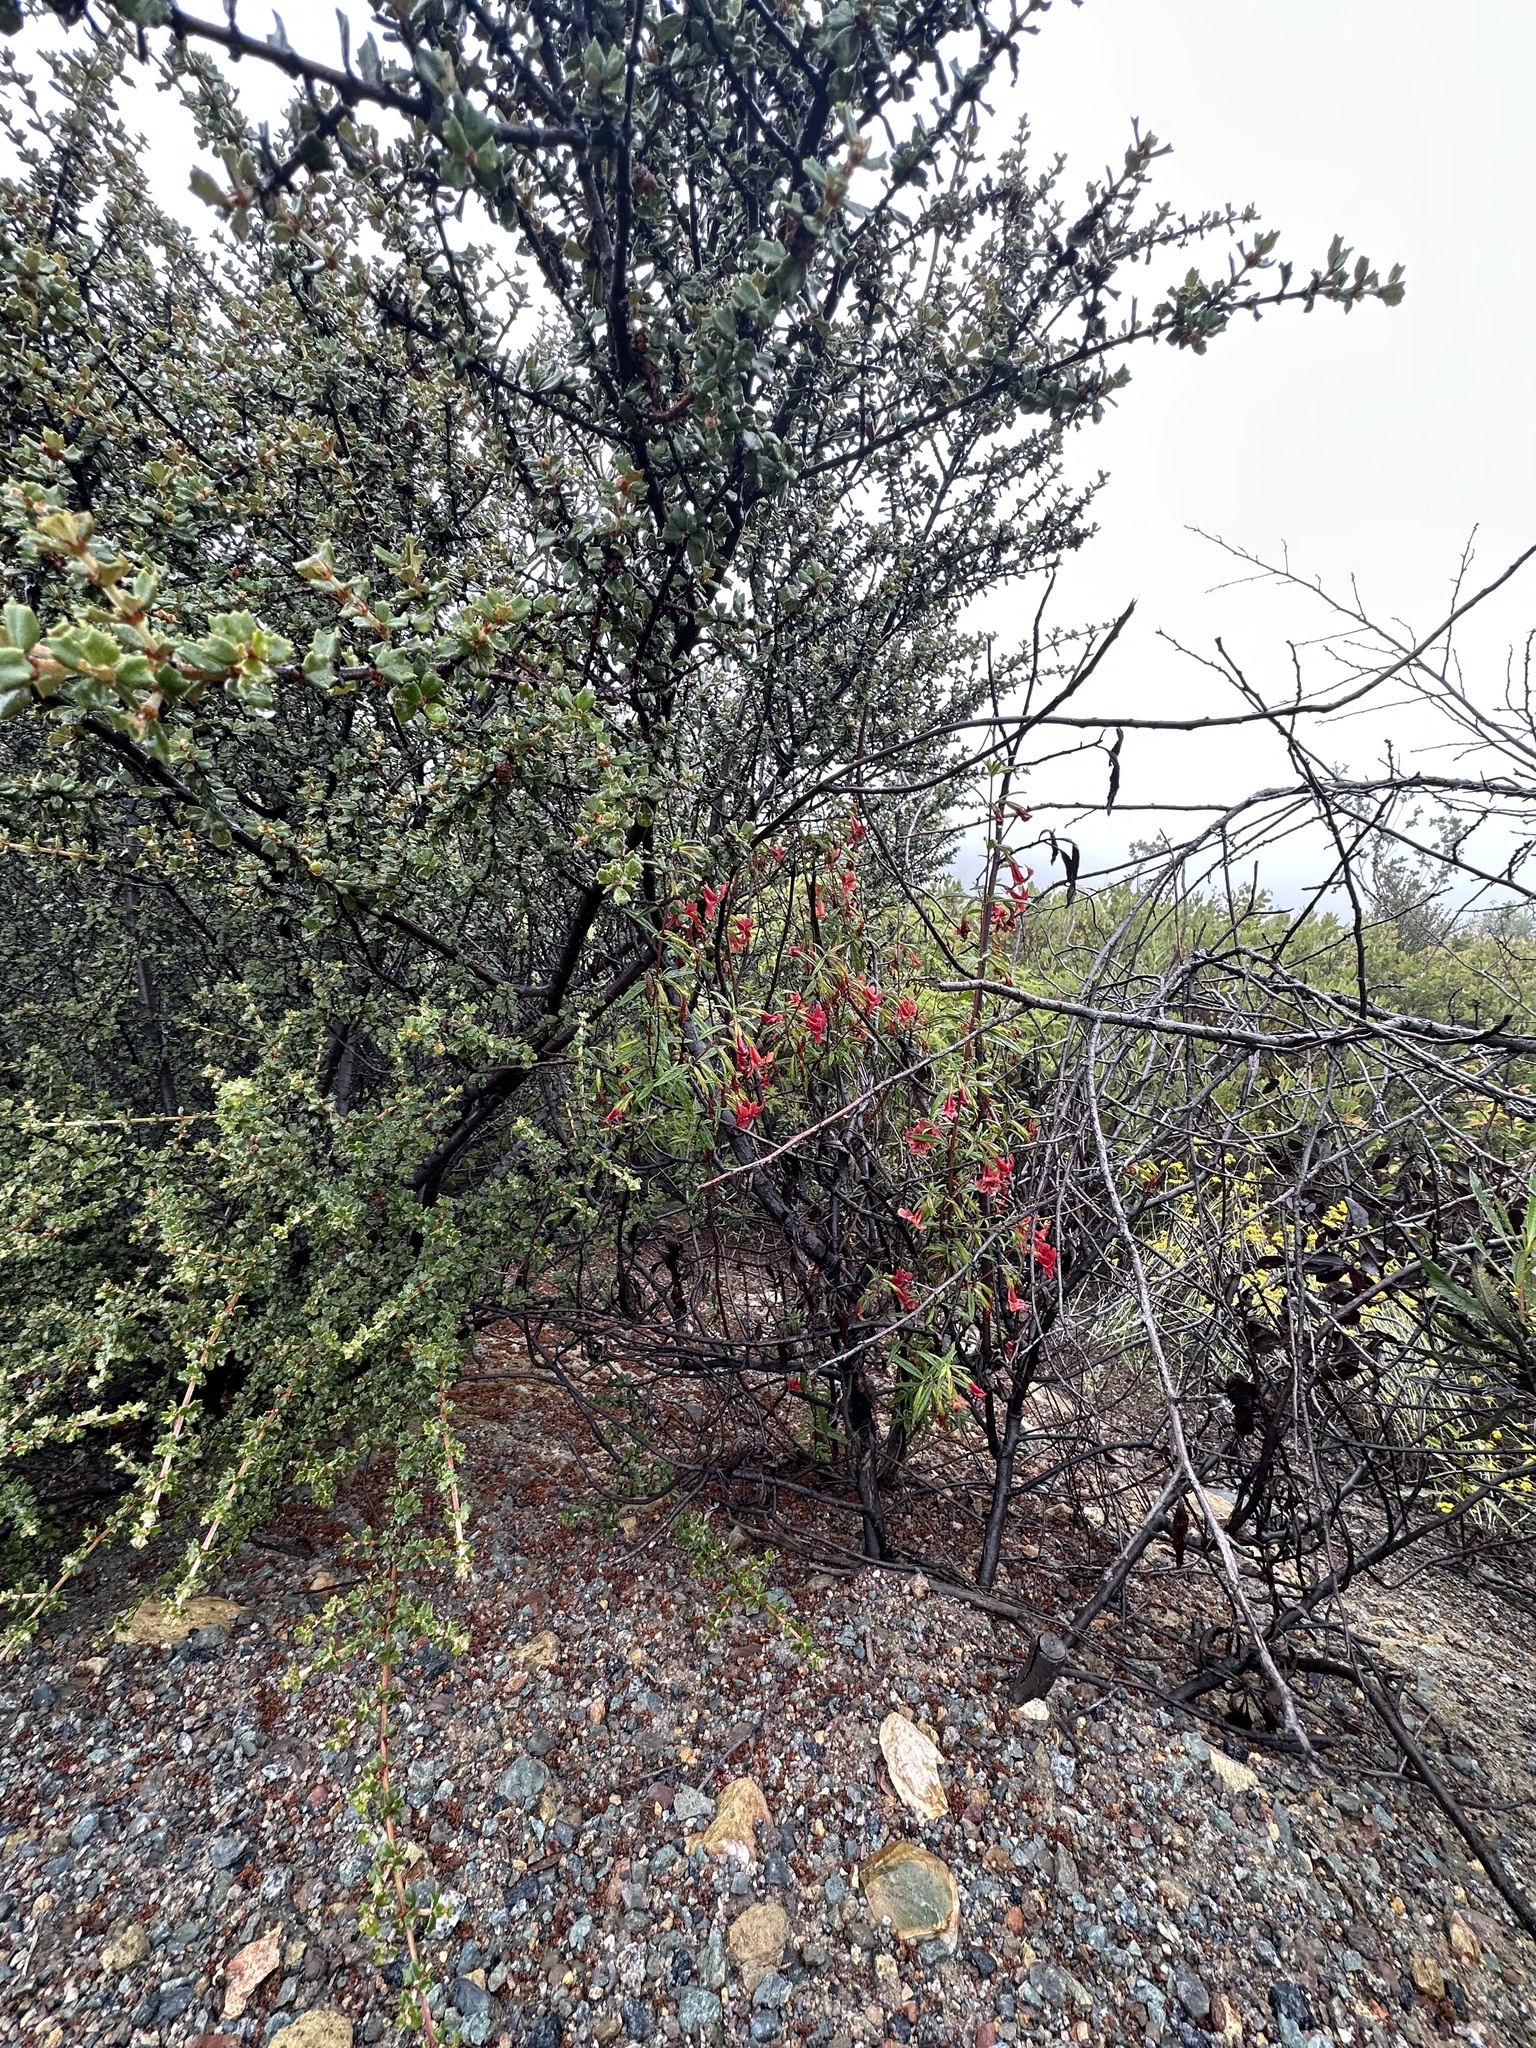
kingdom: Plantae
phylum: Tracheophyta
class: Magnoliopsida
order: Lamiales
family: Phrymaceae
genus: Diplacus
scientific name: Diplacus puniceus
